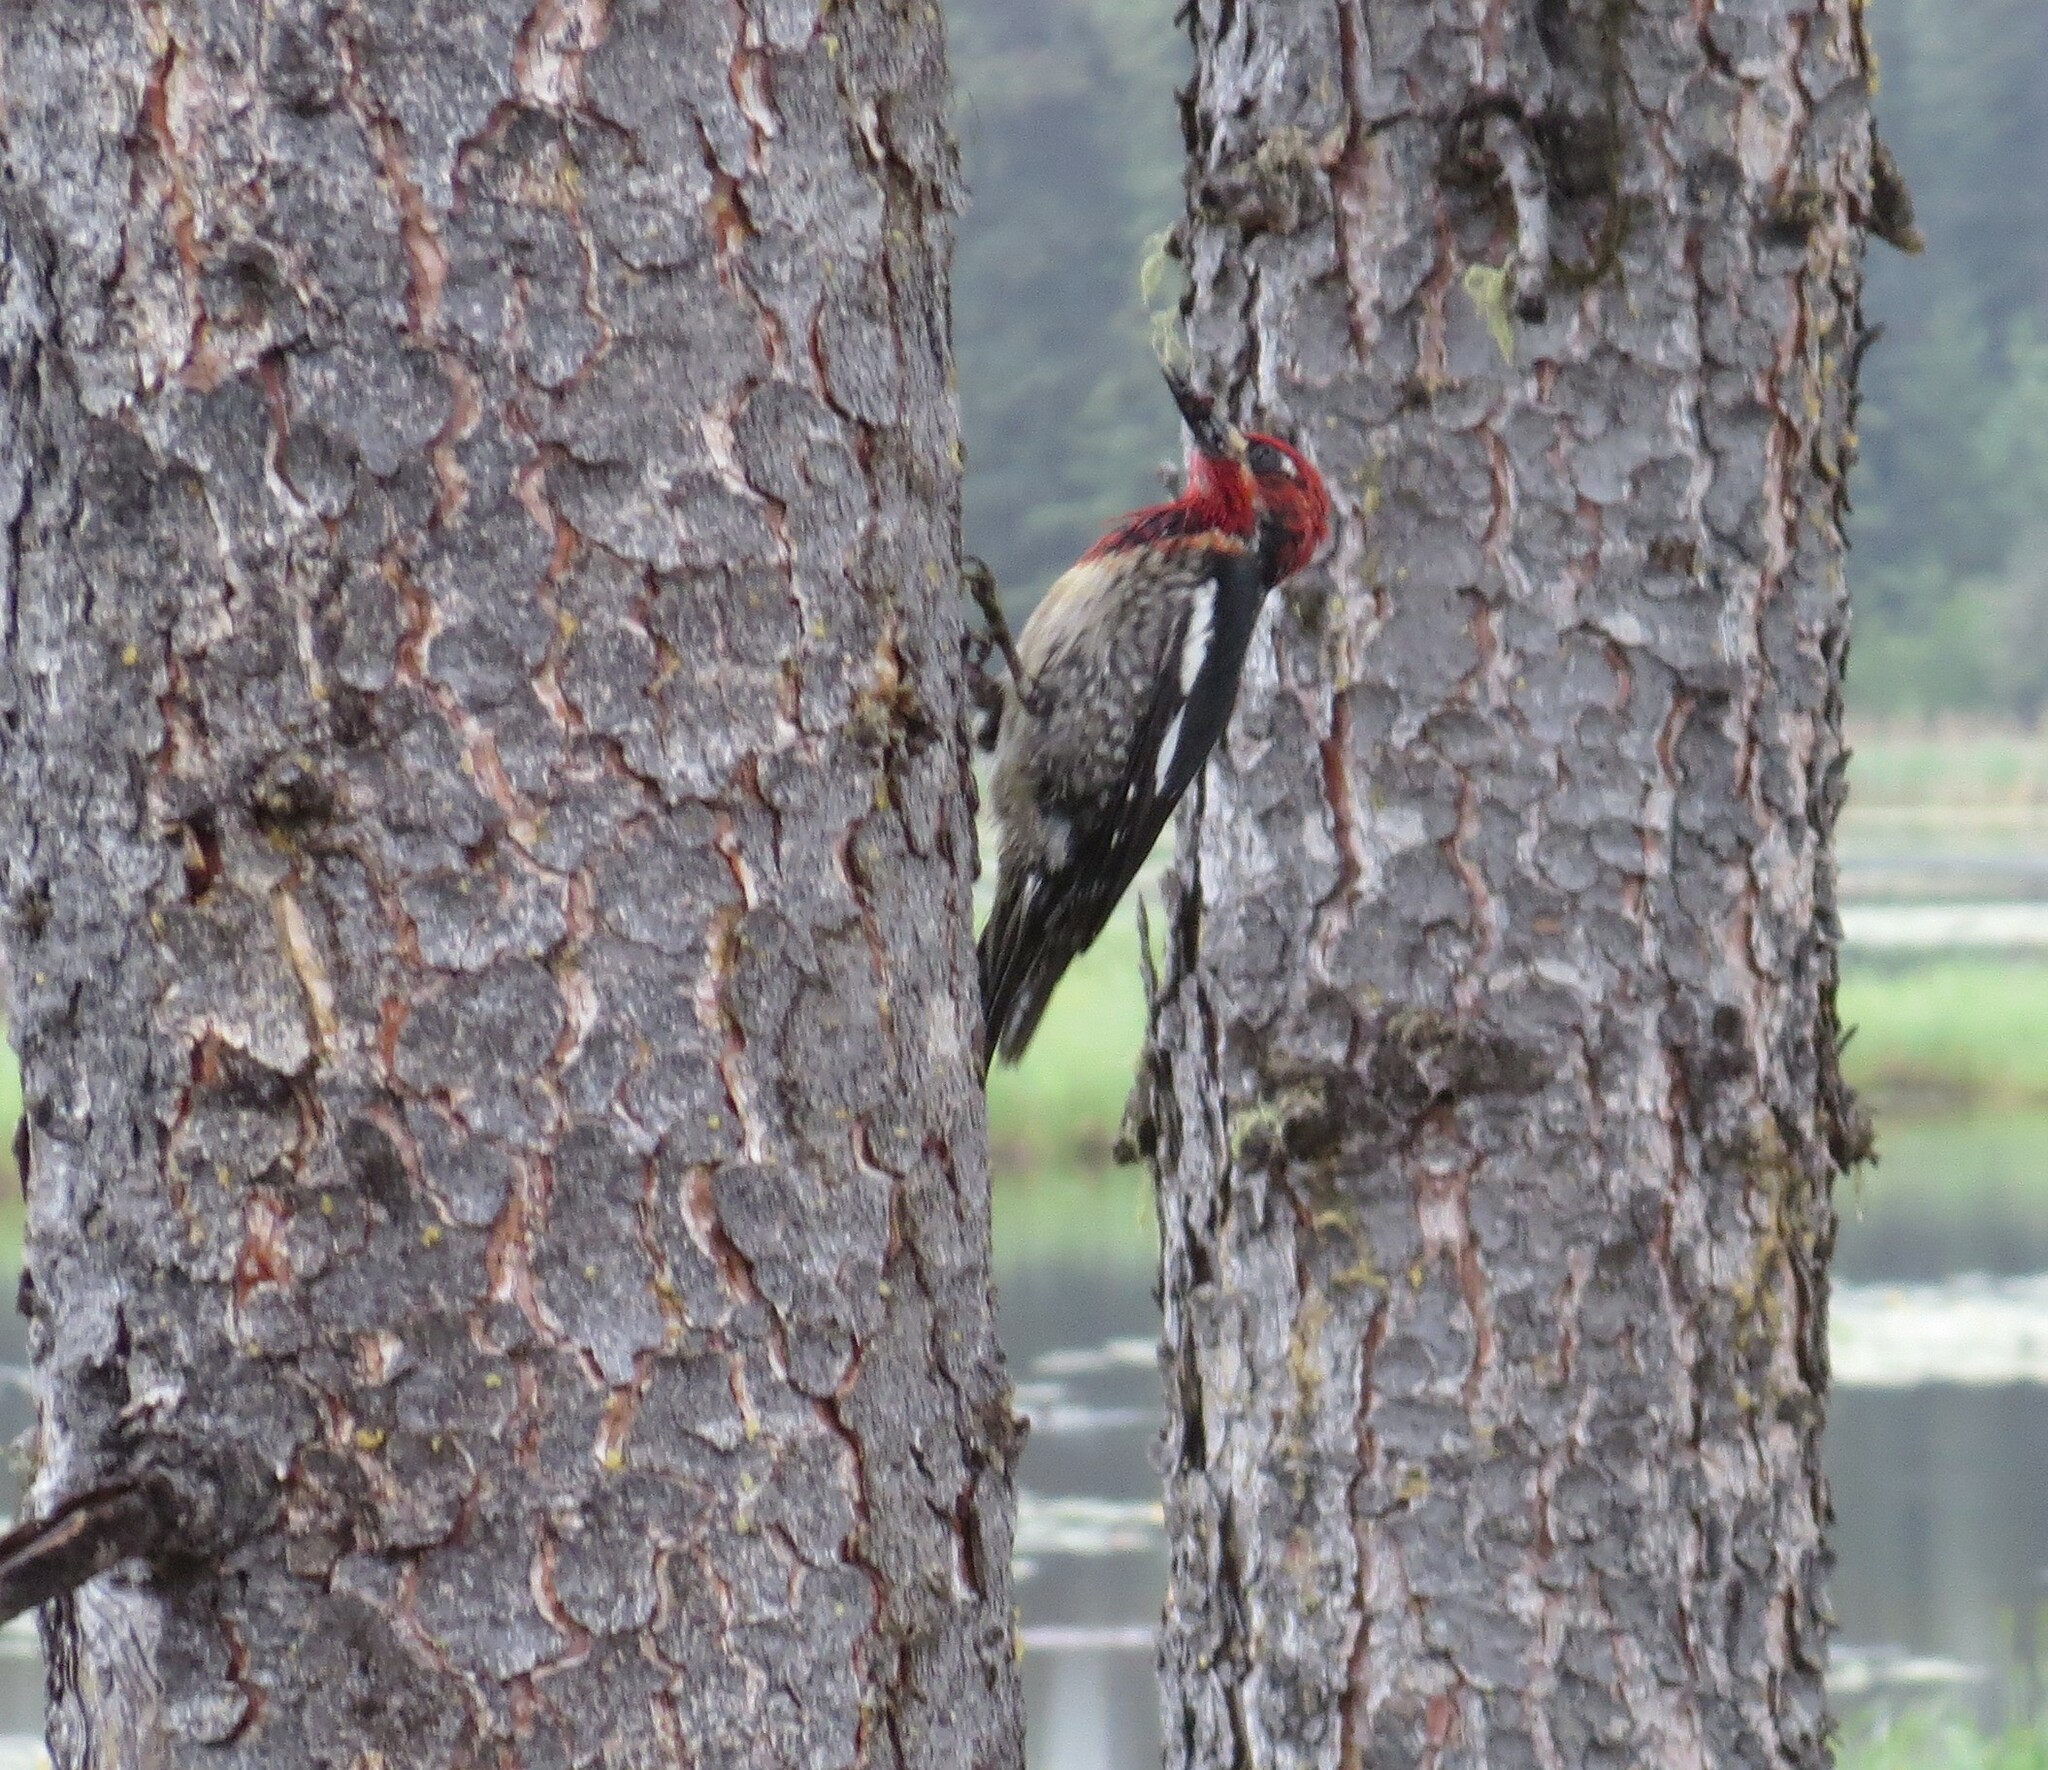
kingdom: Animalia
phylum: Chordata
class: Aves
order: Piciformes
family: Picidae
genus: Sphyrapicus
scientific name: Sphyrapicus ruber
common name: Red-breasted sapsucker
